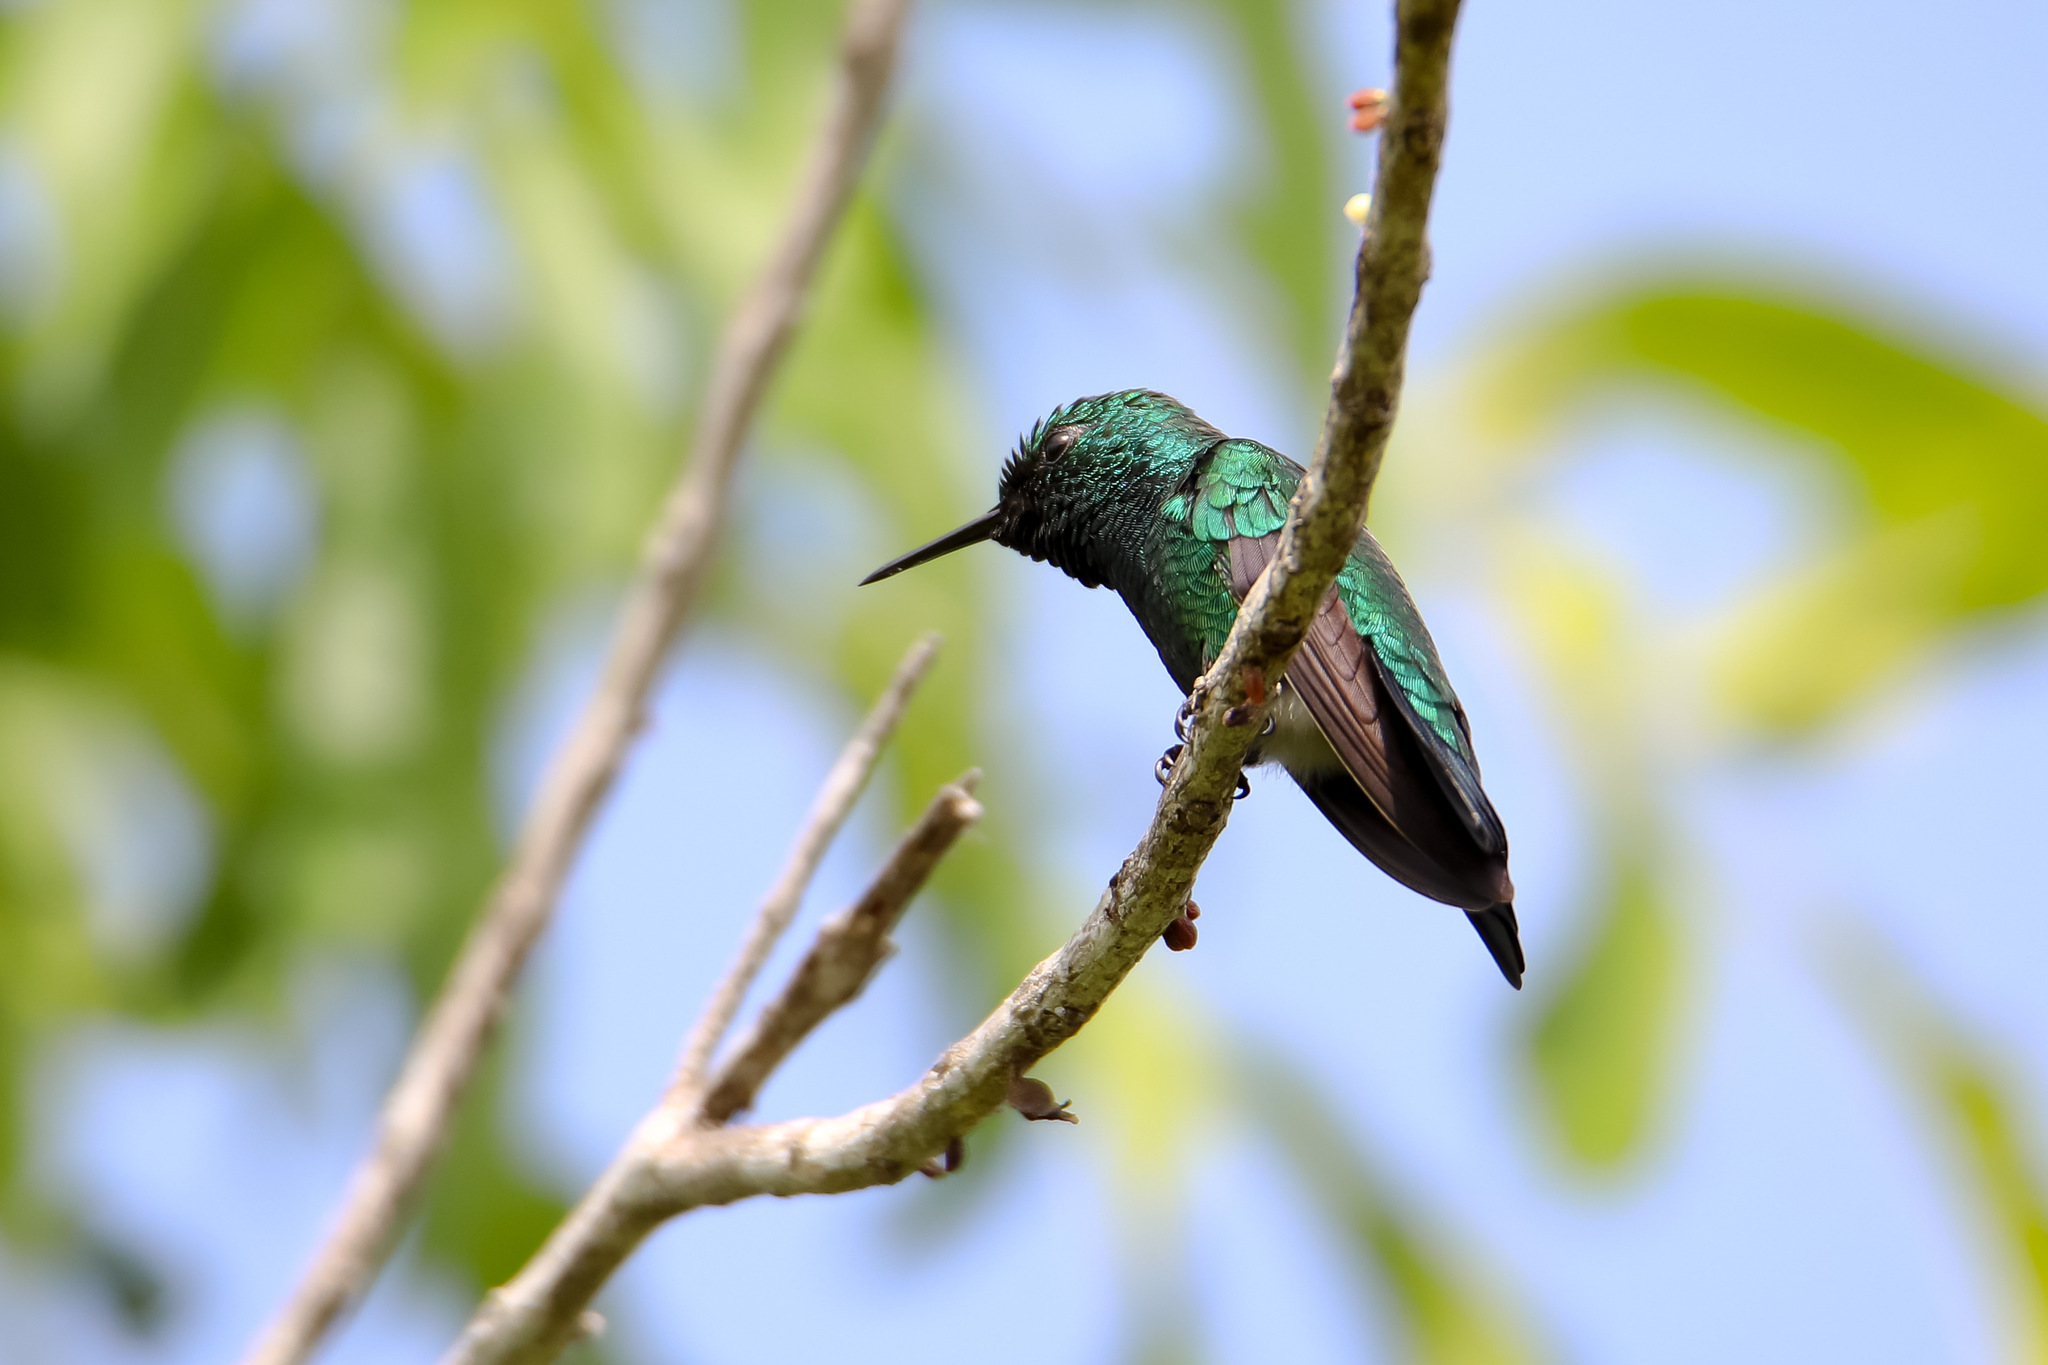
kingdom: Animalia
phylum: Chordata
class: Aves
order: Apodiformes
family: Trochilidae
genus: Chlorostilbon
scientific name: Chlorostilbon assimilis
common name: Garden emerald
